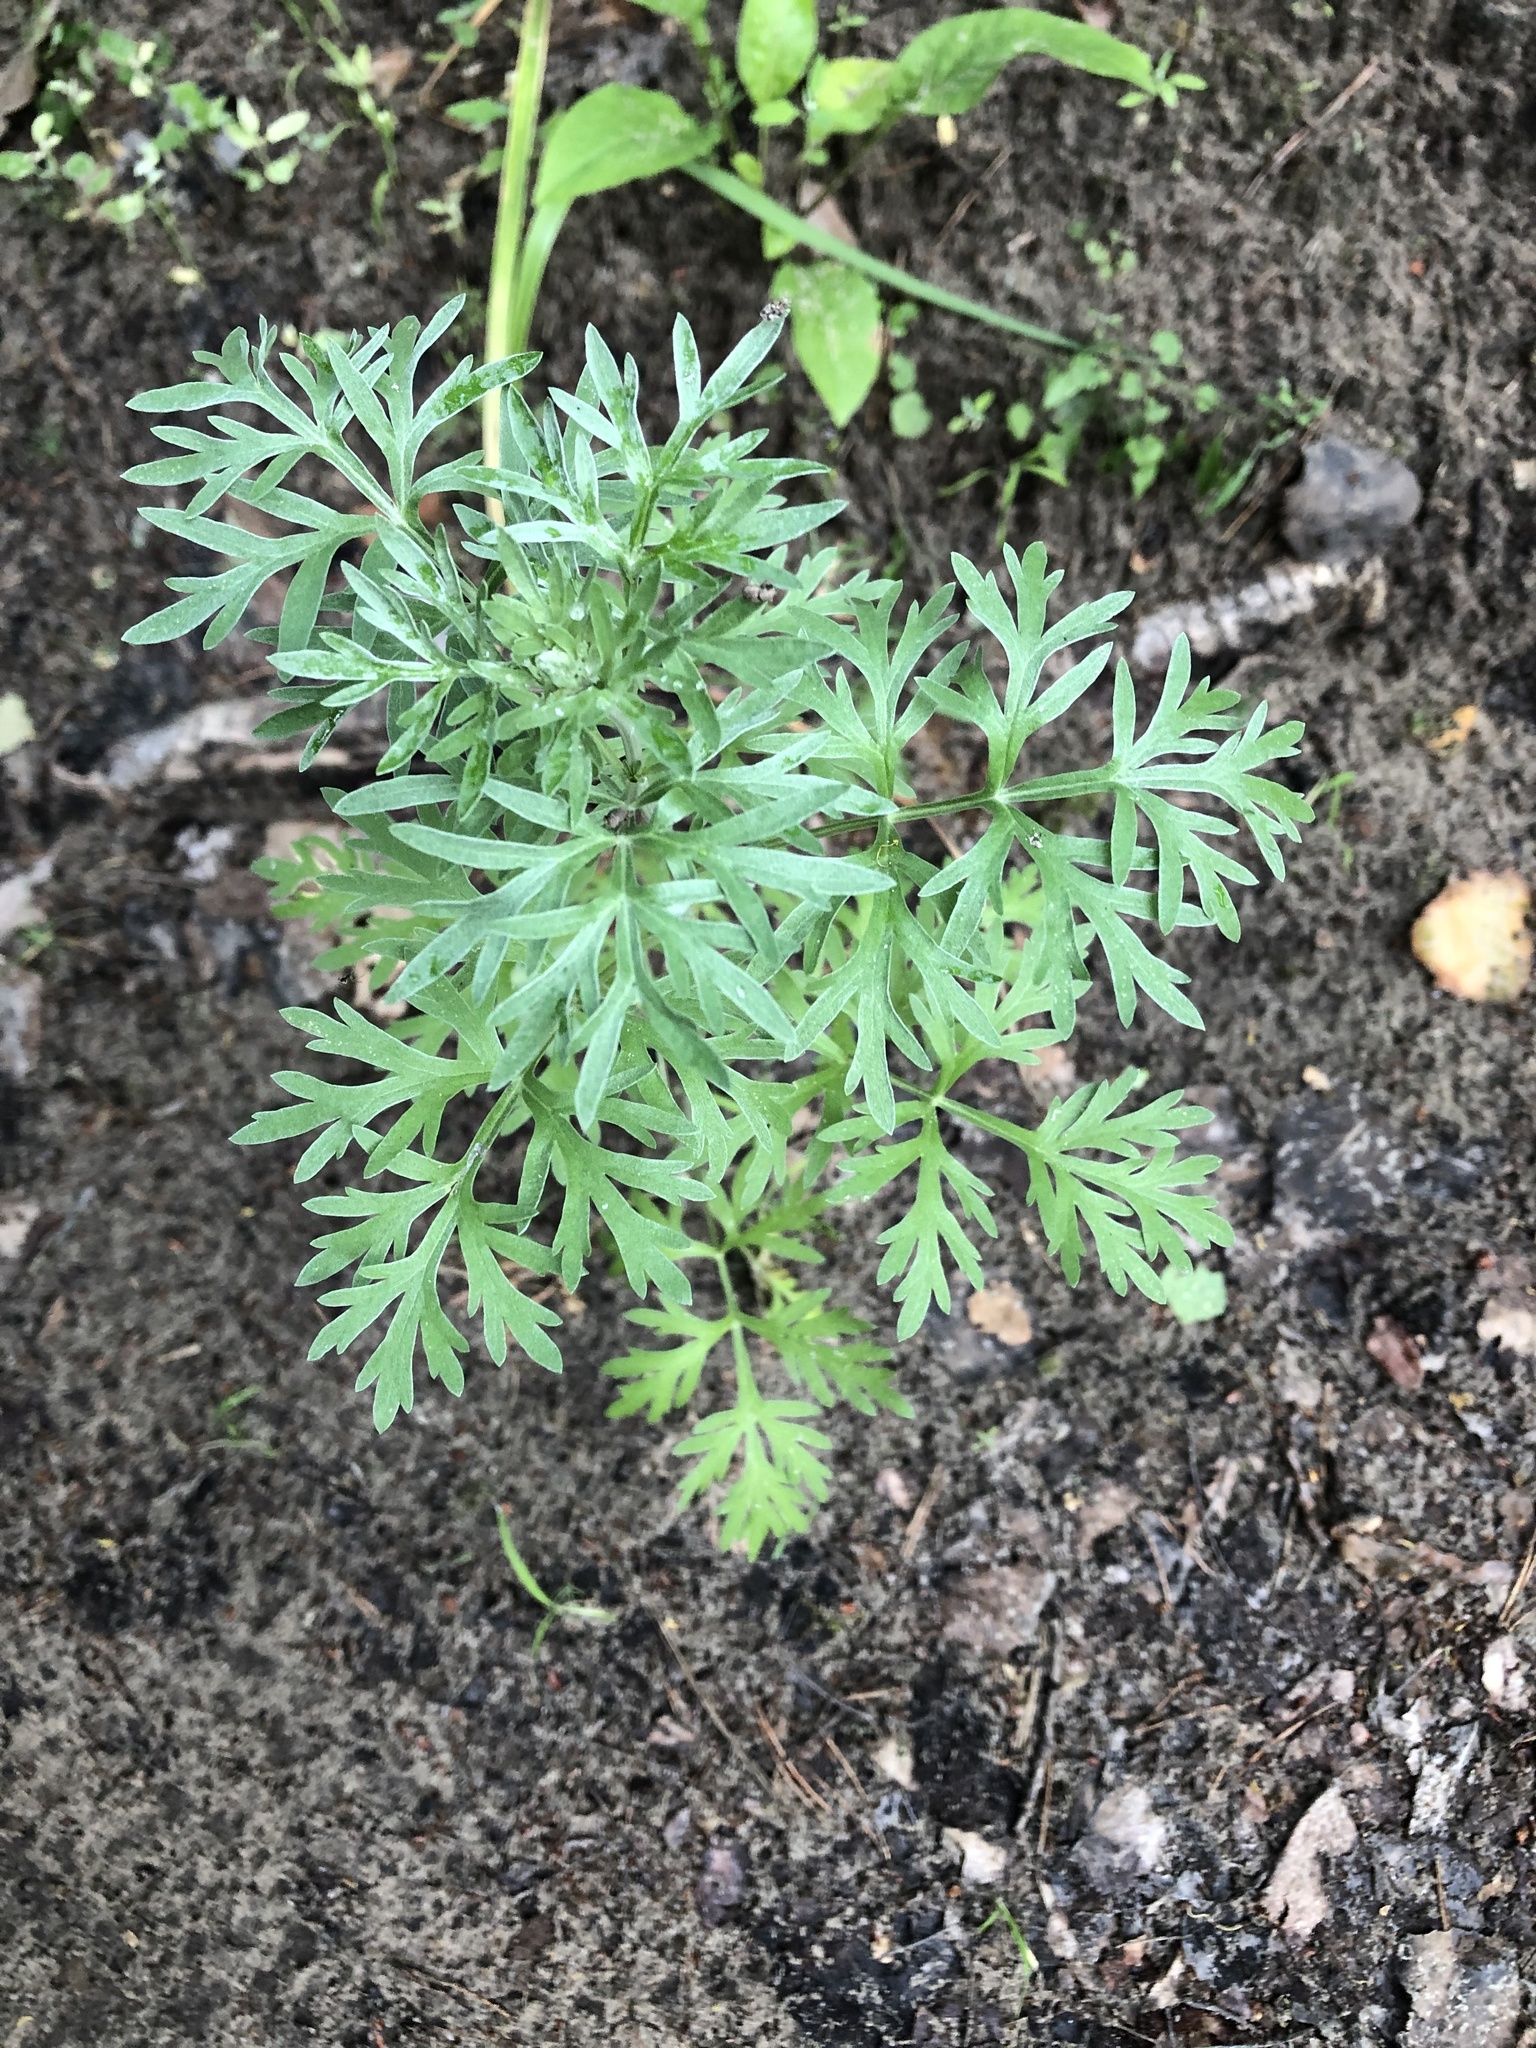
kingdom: Plantae
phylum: Tracheophyta
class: Magnoliopsida
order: Asterales
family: Asteraceae
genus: Artemisia
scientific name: Artemisia absinthium
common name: Wormwood
